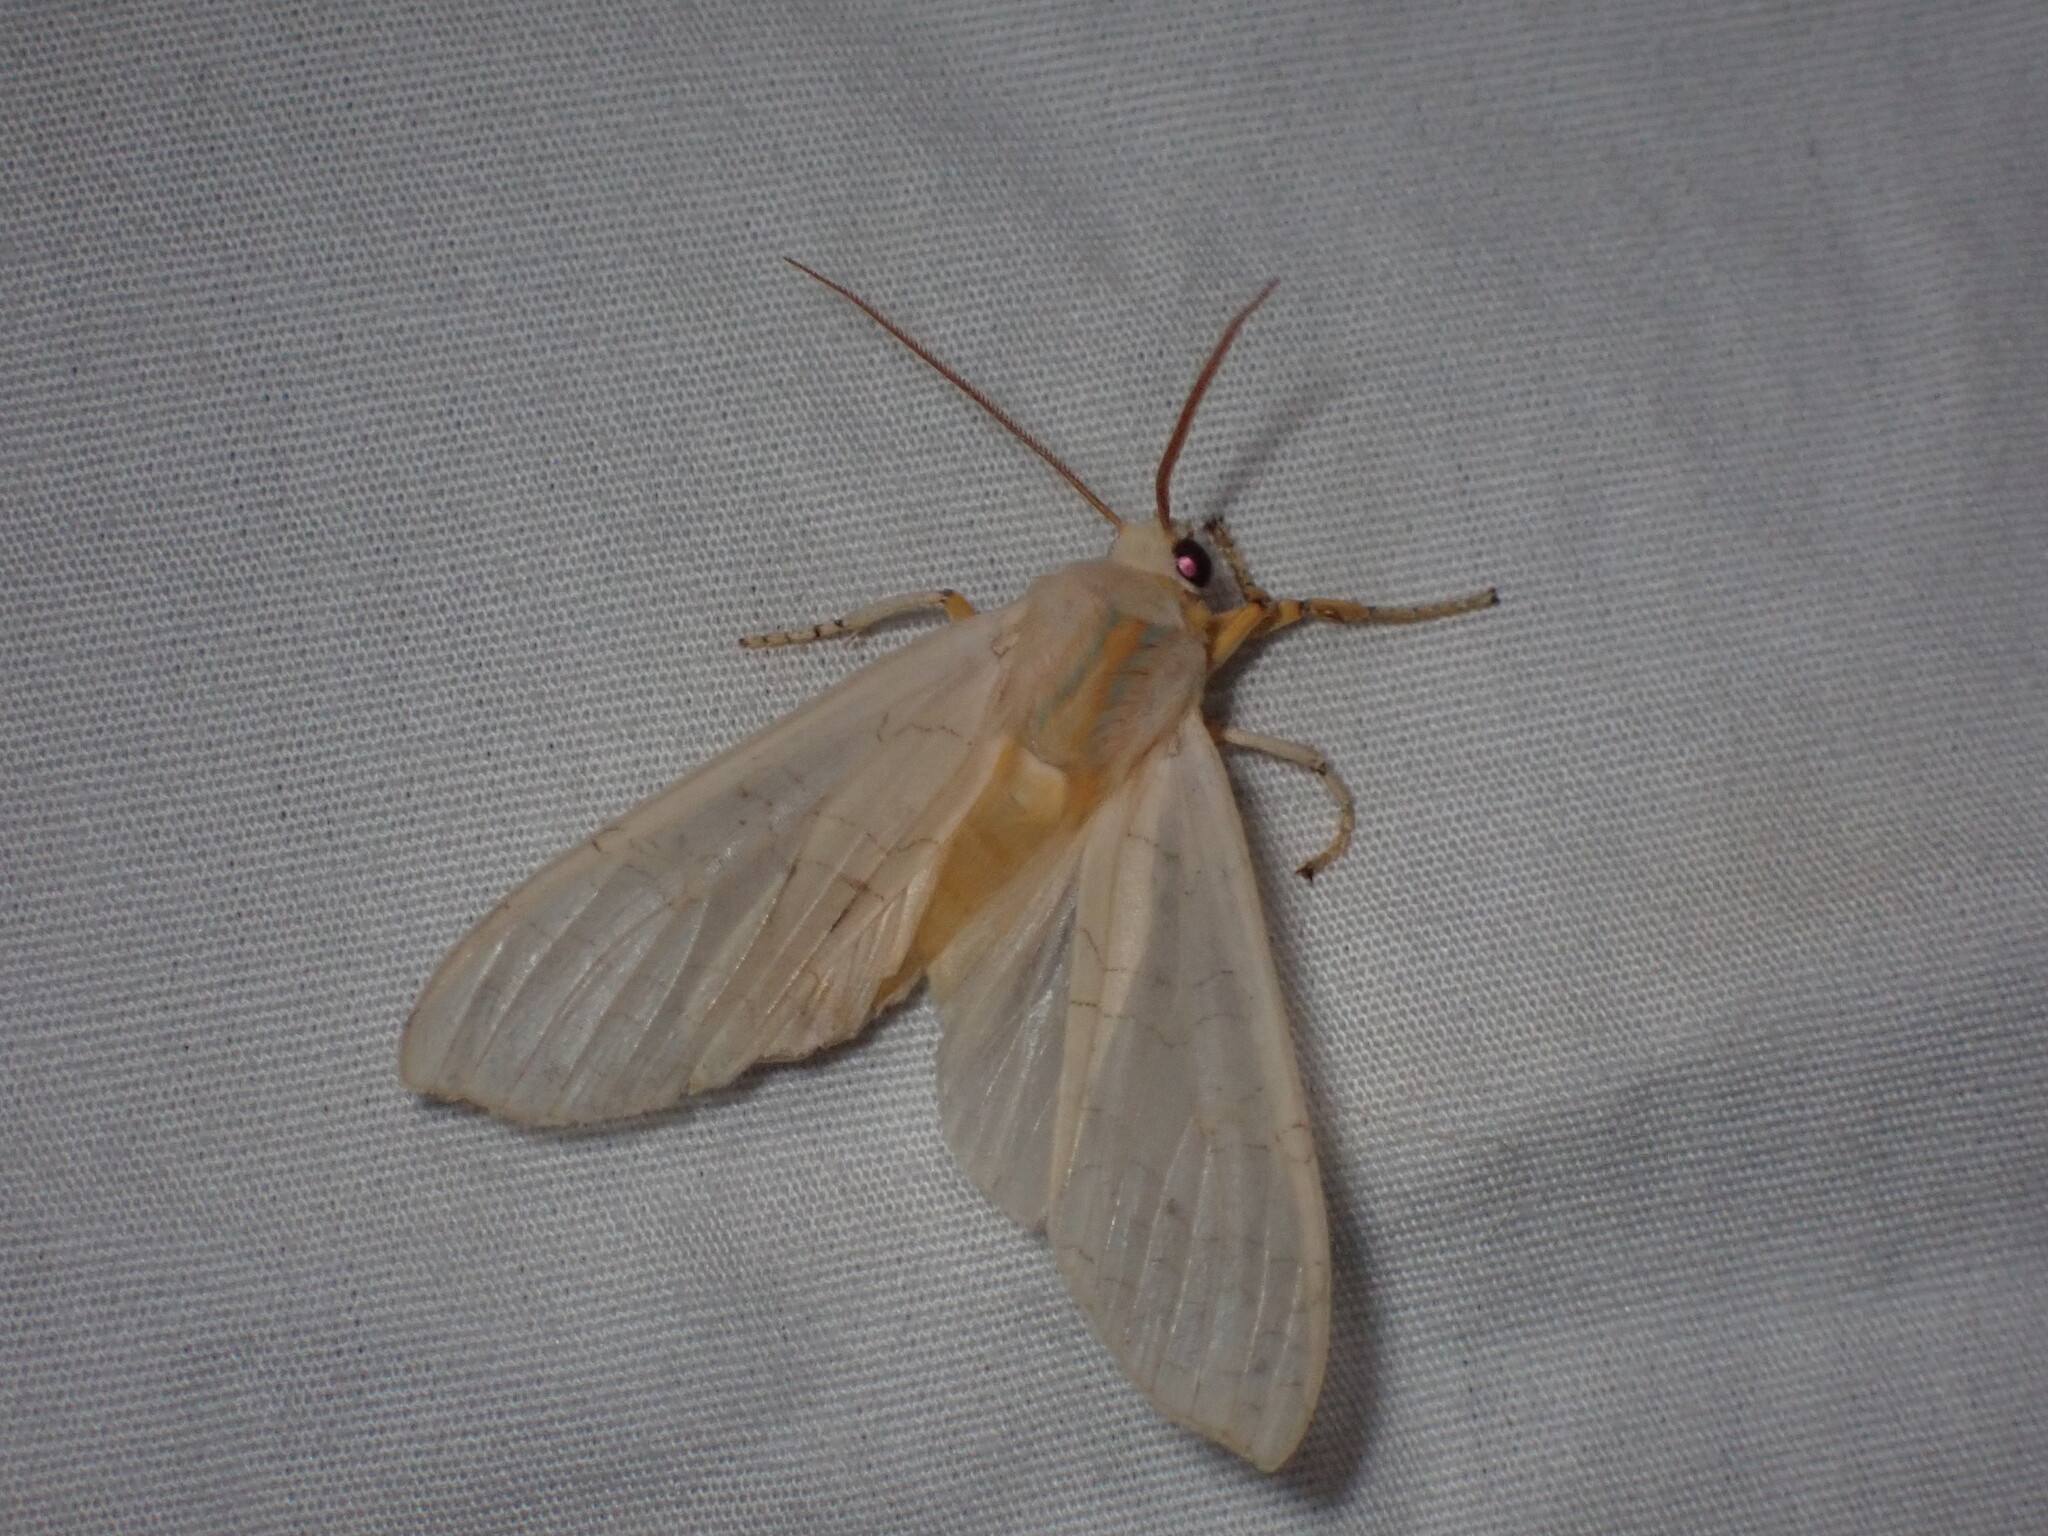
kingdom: Animalia
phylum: Arthropoda
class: Insecta
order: Lepidoptera
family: Erebidae
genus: Halysidota
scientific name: Halysidota
